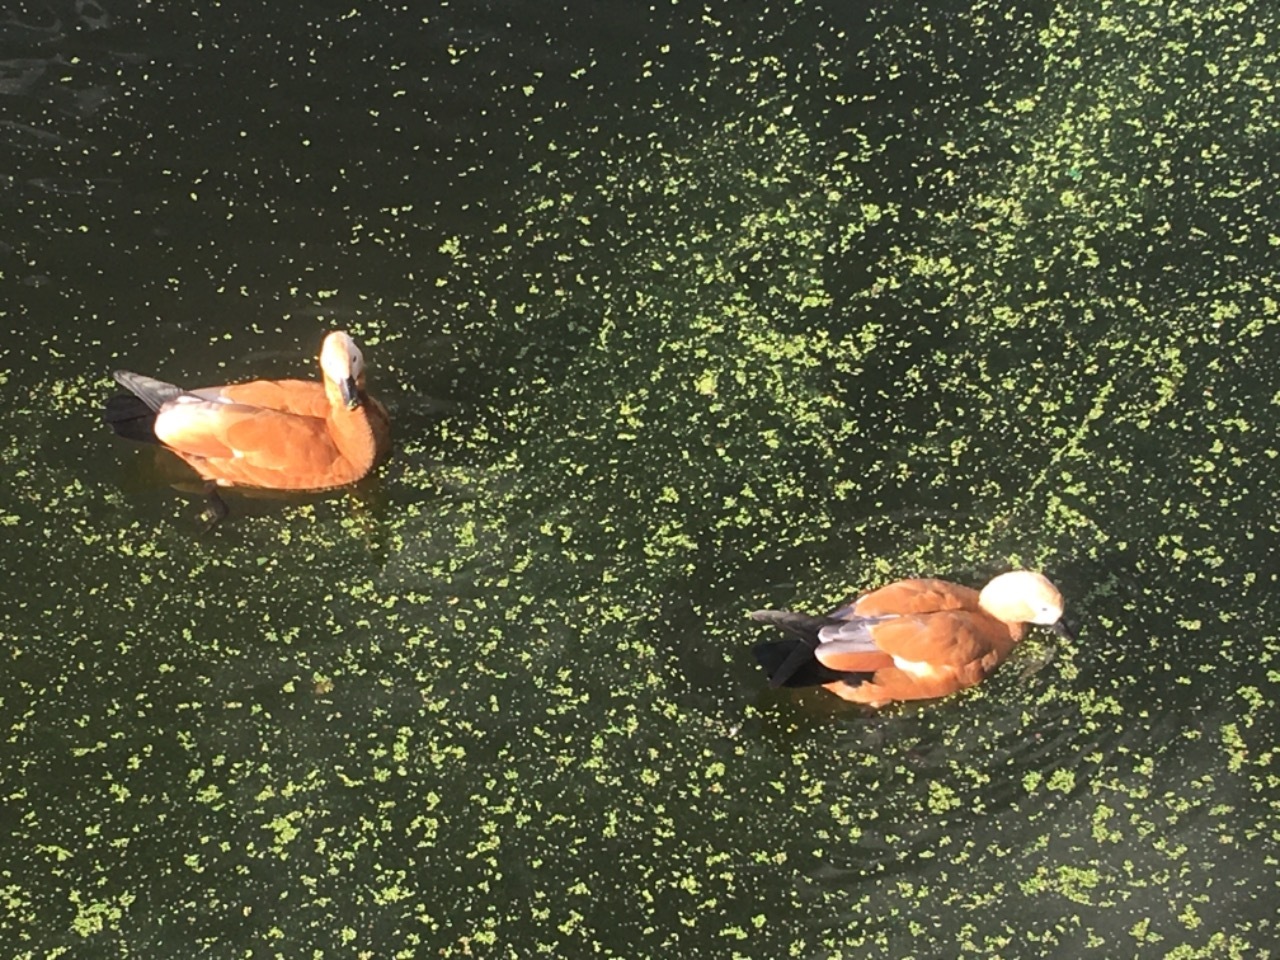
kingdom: Animalia
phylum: Chordata
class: Aves
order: Anseriformes
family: Anatidae
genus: Tadorna
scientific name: Tadorna ferruginea
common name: Ruddy shelduck
